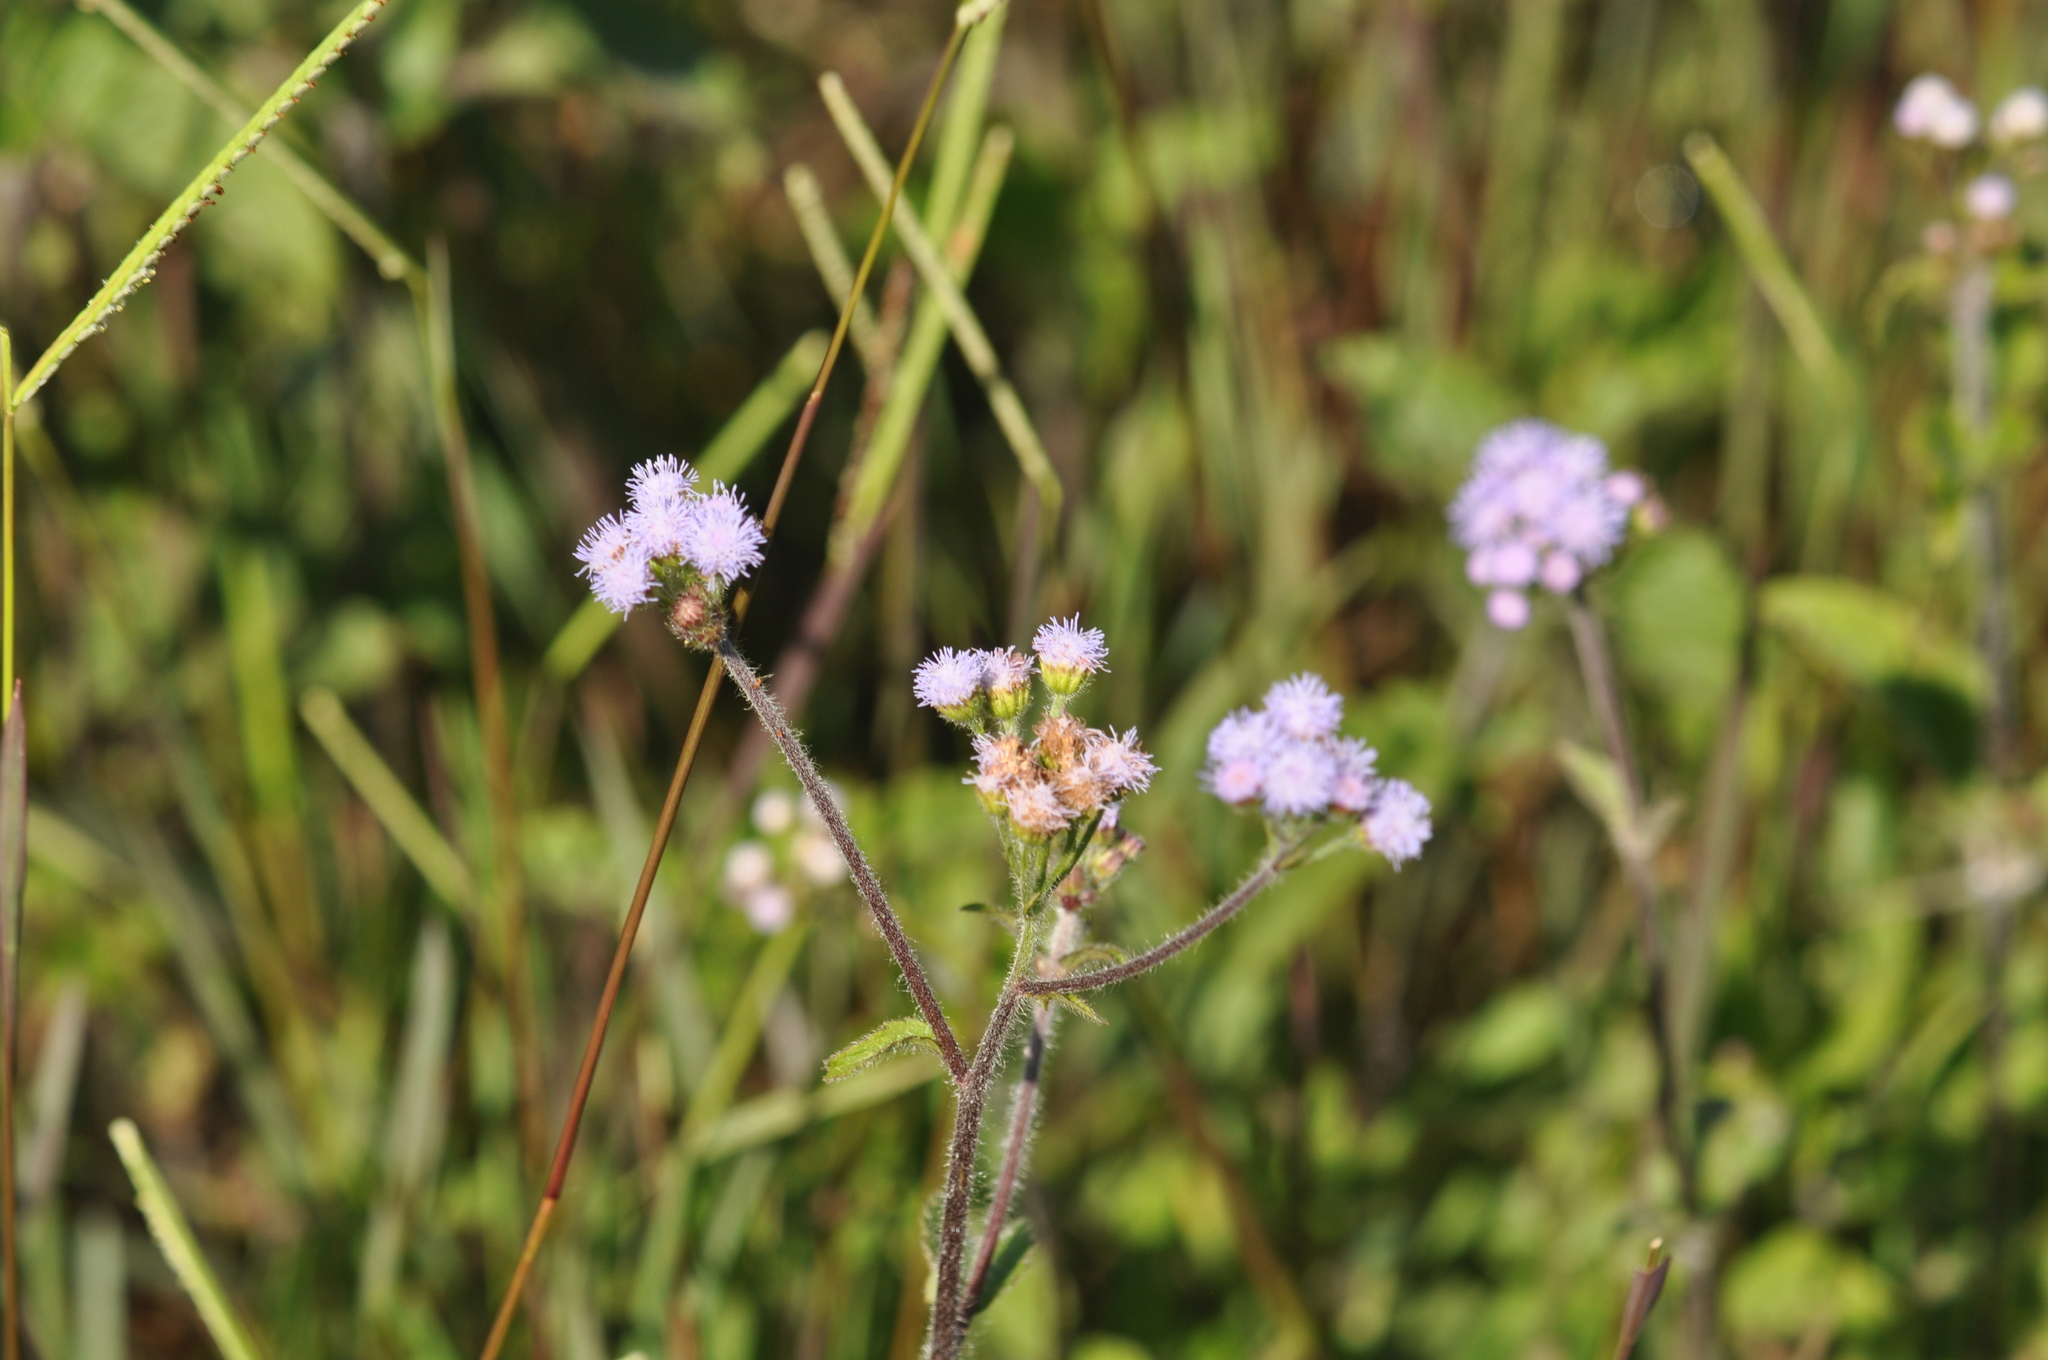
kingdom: Plantae
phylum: Tracheophyta
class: Magnoliopsida
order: Asterales
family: Asteraceae
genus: Ageratum
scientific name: Ageratum conyzoides
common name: Tropical whiteweed
